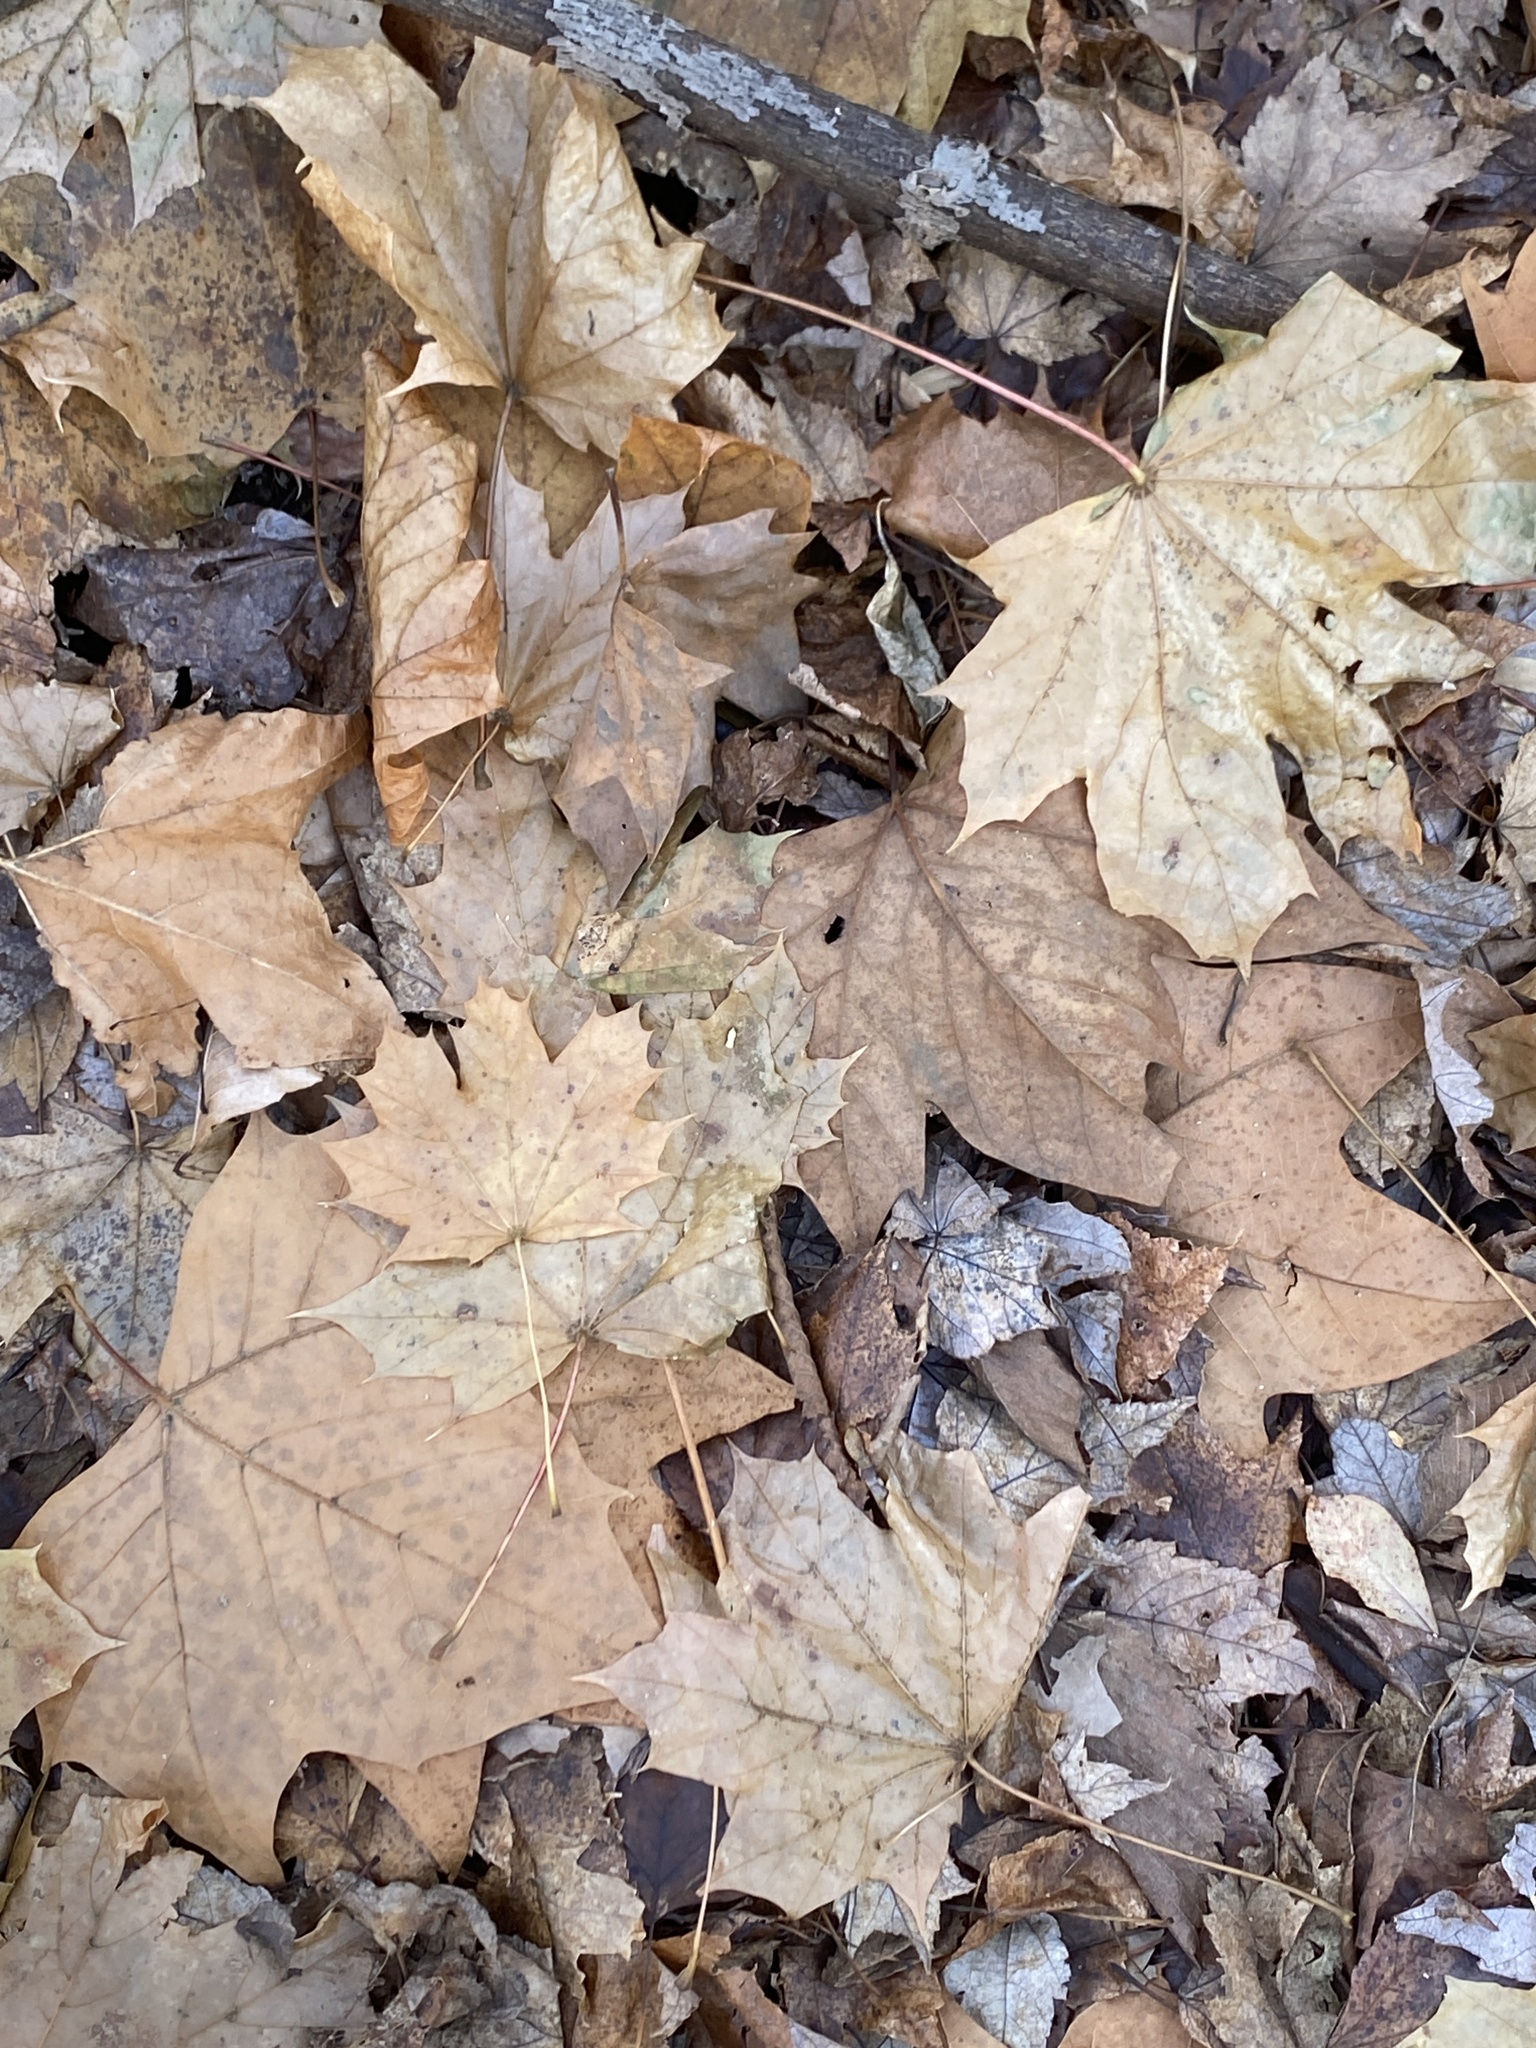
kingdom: Plantae
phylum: Tracheophyta
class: Magnoliopsida
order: Sapindales
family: Sapindaceae
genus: Acer
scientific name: Acer platanoides
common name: Norway maple
